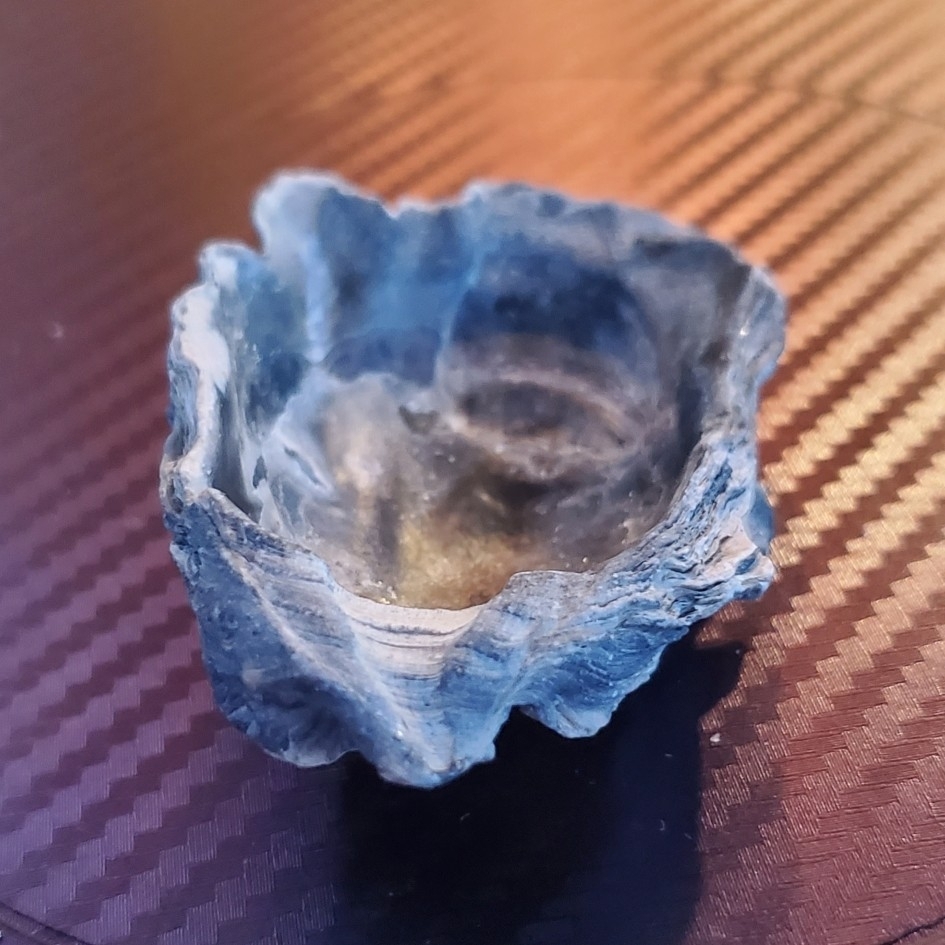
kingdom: Animalia
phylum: Mollusca
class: Bivalvia
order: Ostreida
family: Ostreidae
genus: Crassostrea
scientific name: Crassostrea virginica
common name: American oyster
